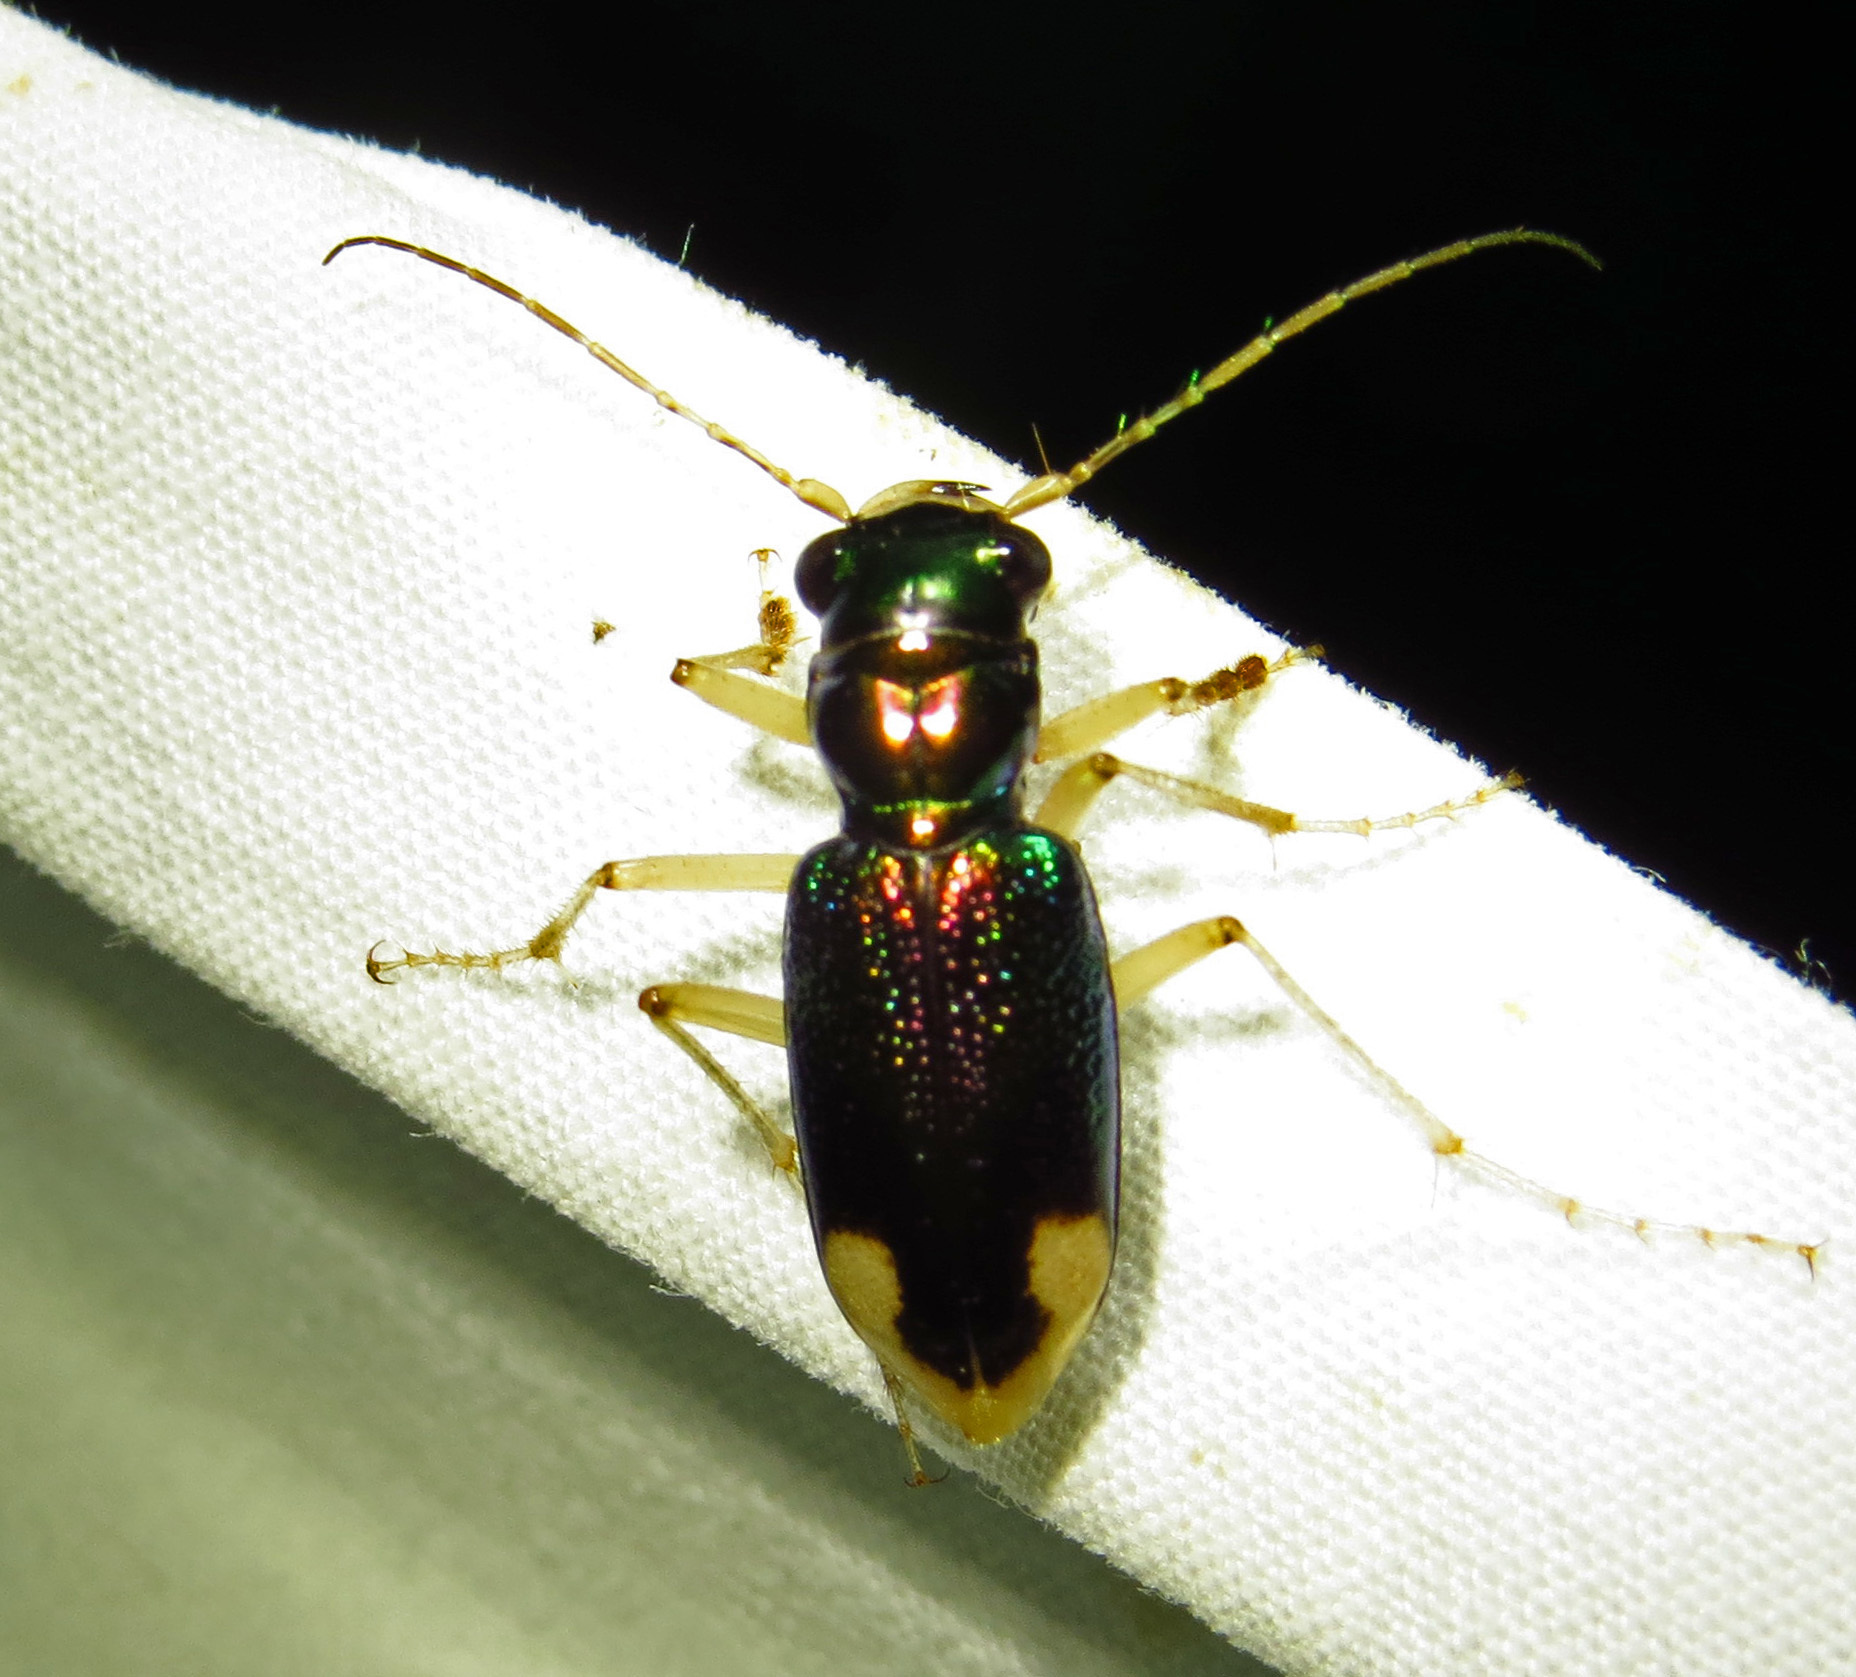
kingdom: Animalia
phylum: Arthropoda
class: Insecta
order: Coleoptera
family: Carabidae
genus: Tetracha
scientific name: Tetracha carolina
